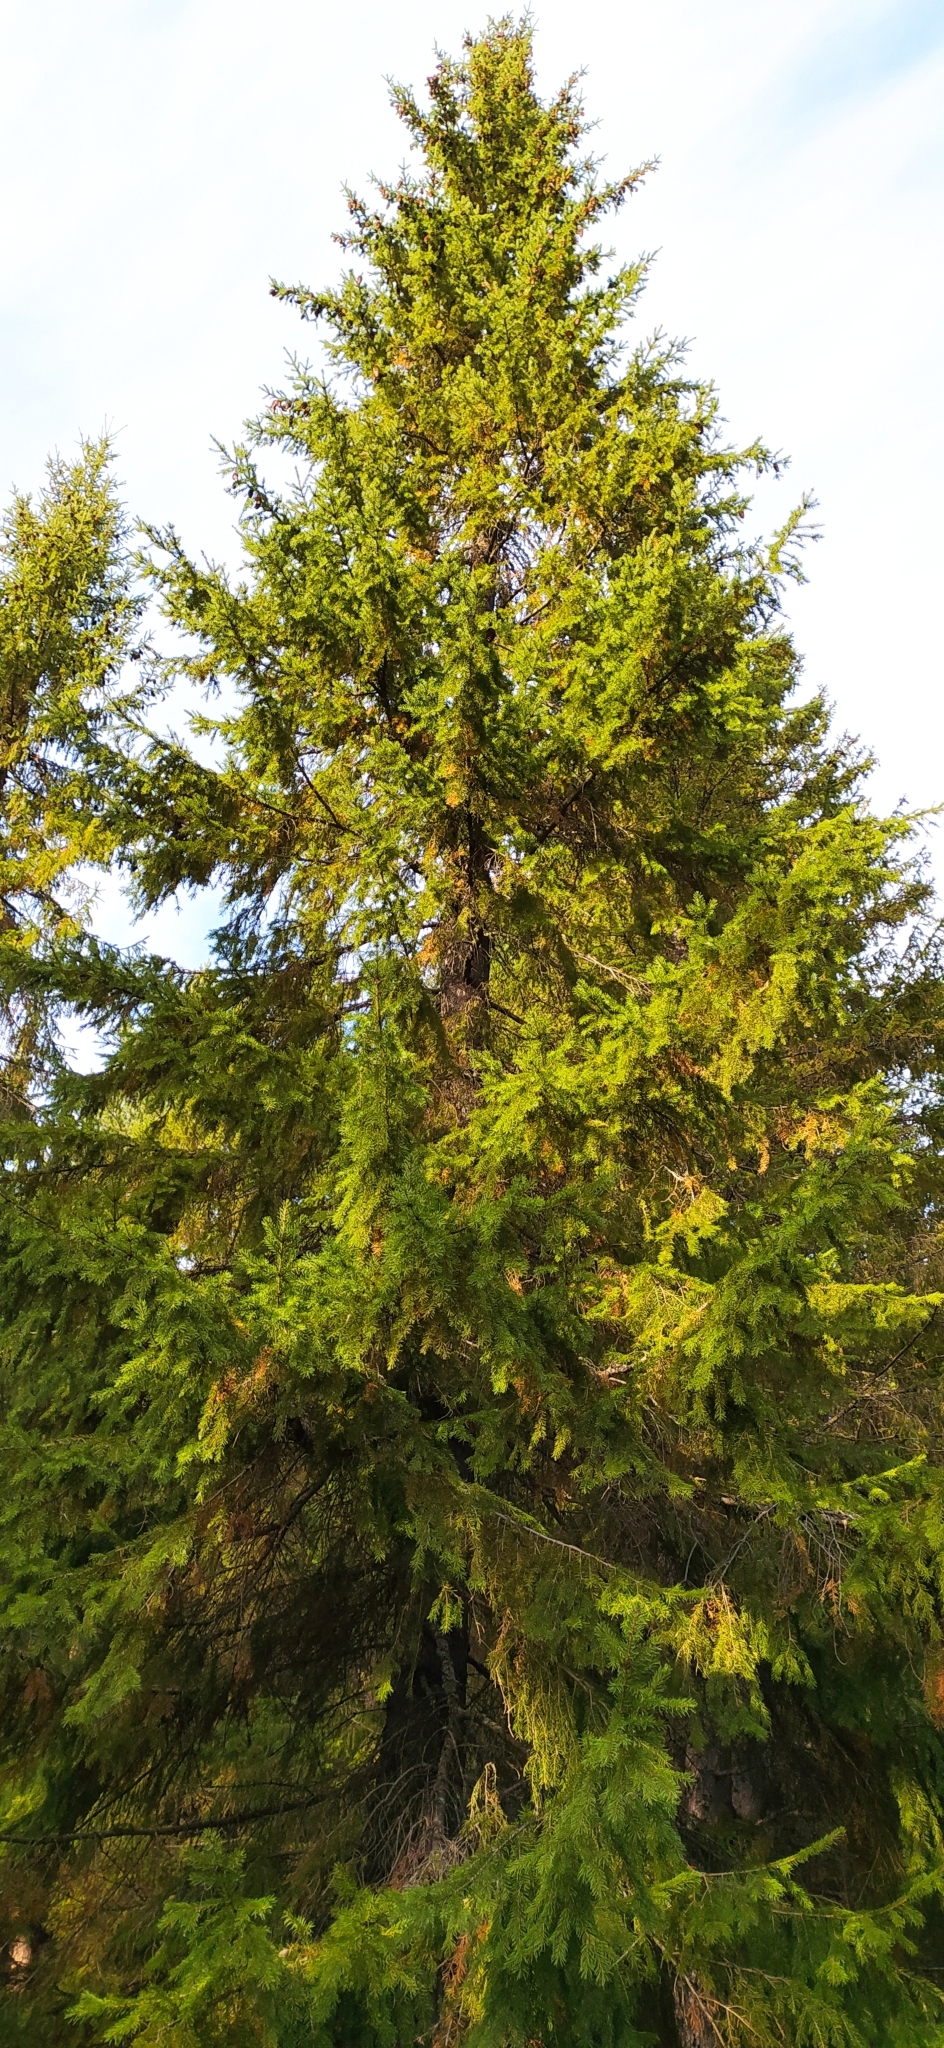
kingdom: Plantae
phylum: Tracheophyta
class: Pinopsida
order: Pinales
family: Pinaceae
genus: Picea
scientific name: Picea obovata
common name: Siberian spruce
